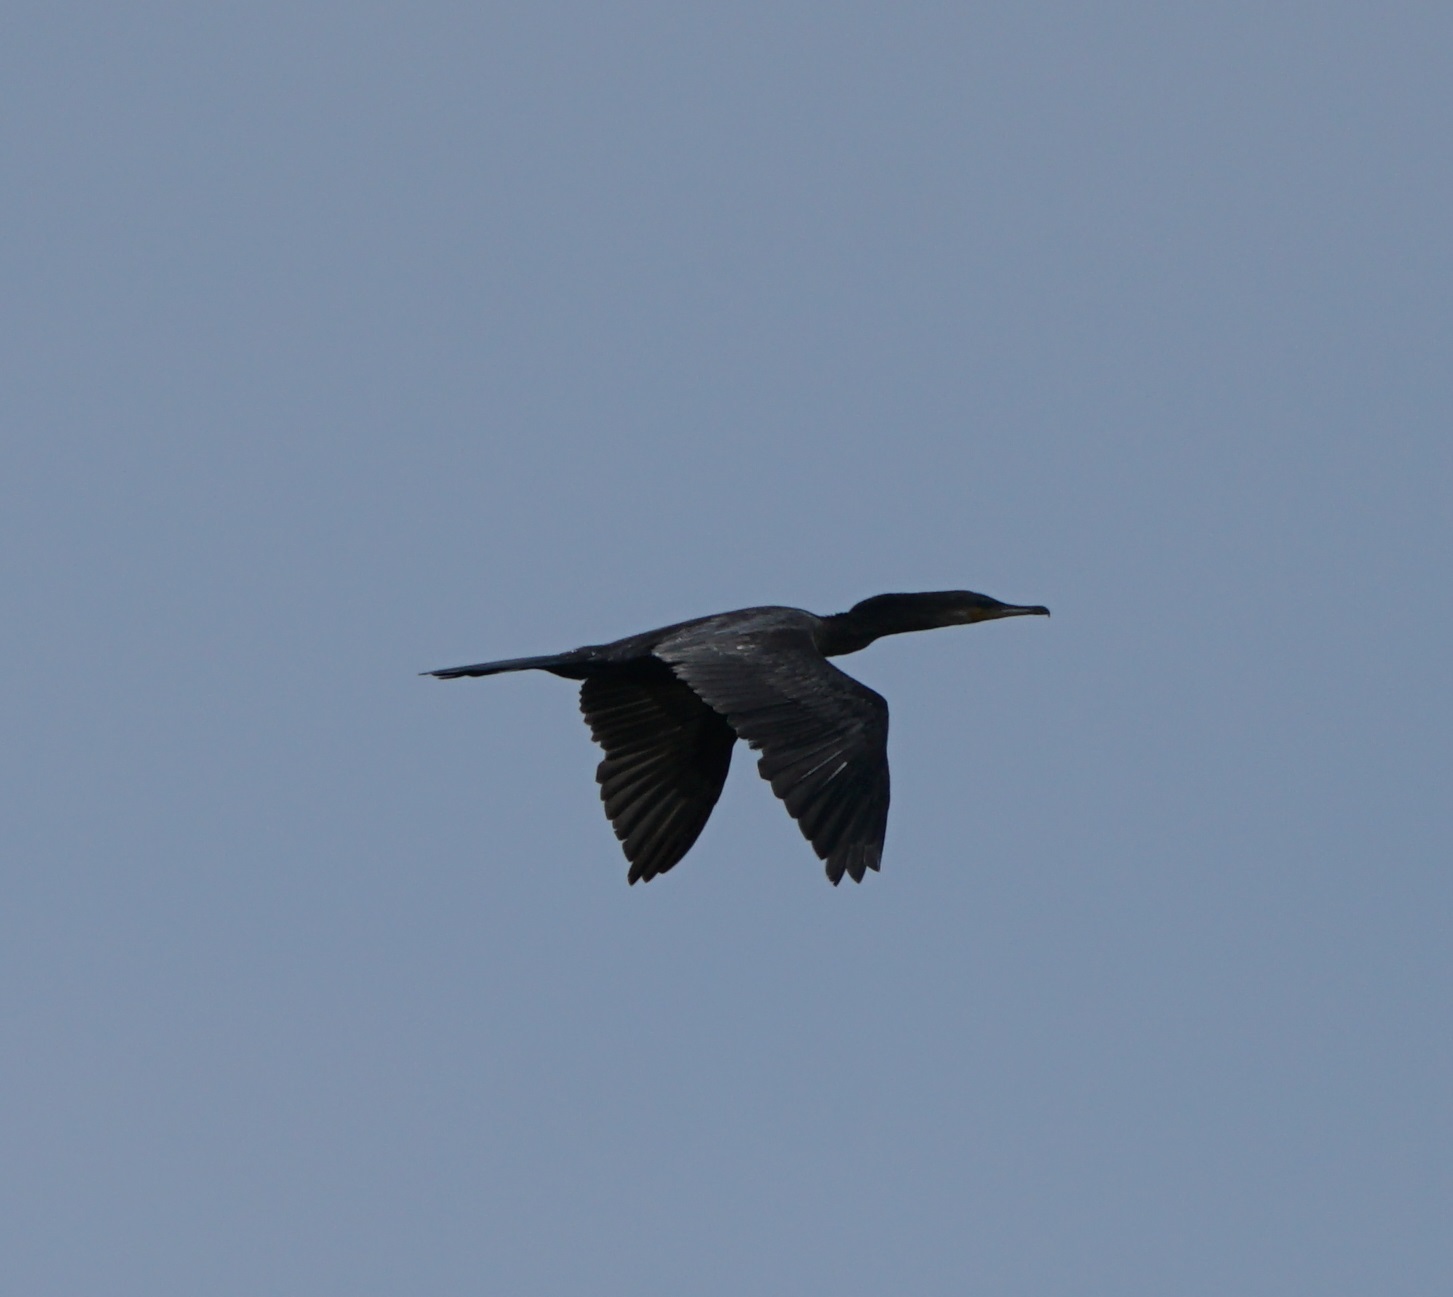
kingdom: Animalia
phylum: Chordata
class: Aves
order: Suliformes
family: Phalacrocoracidae
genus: Phalacrocorax
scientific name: Phalacrocorax brasilianus
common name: Neotropic cormorant
